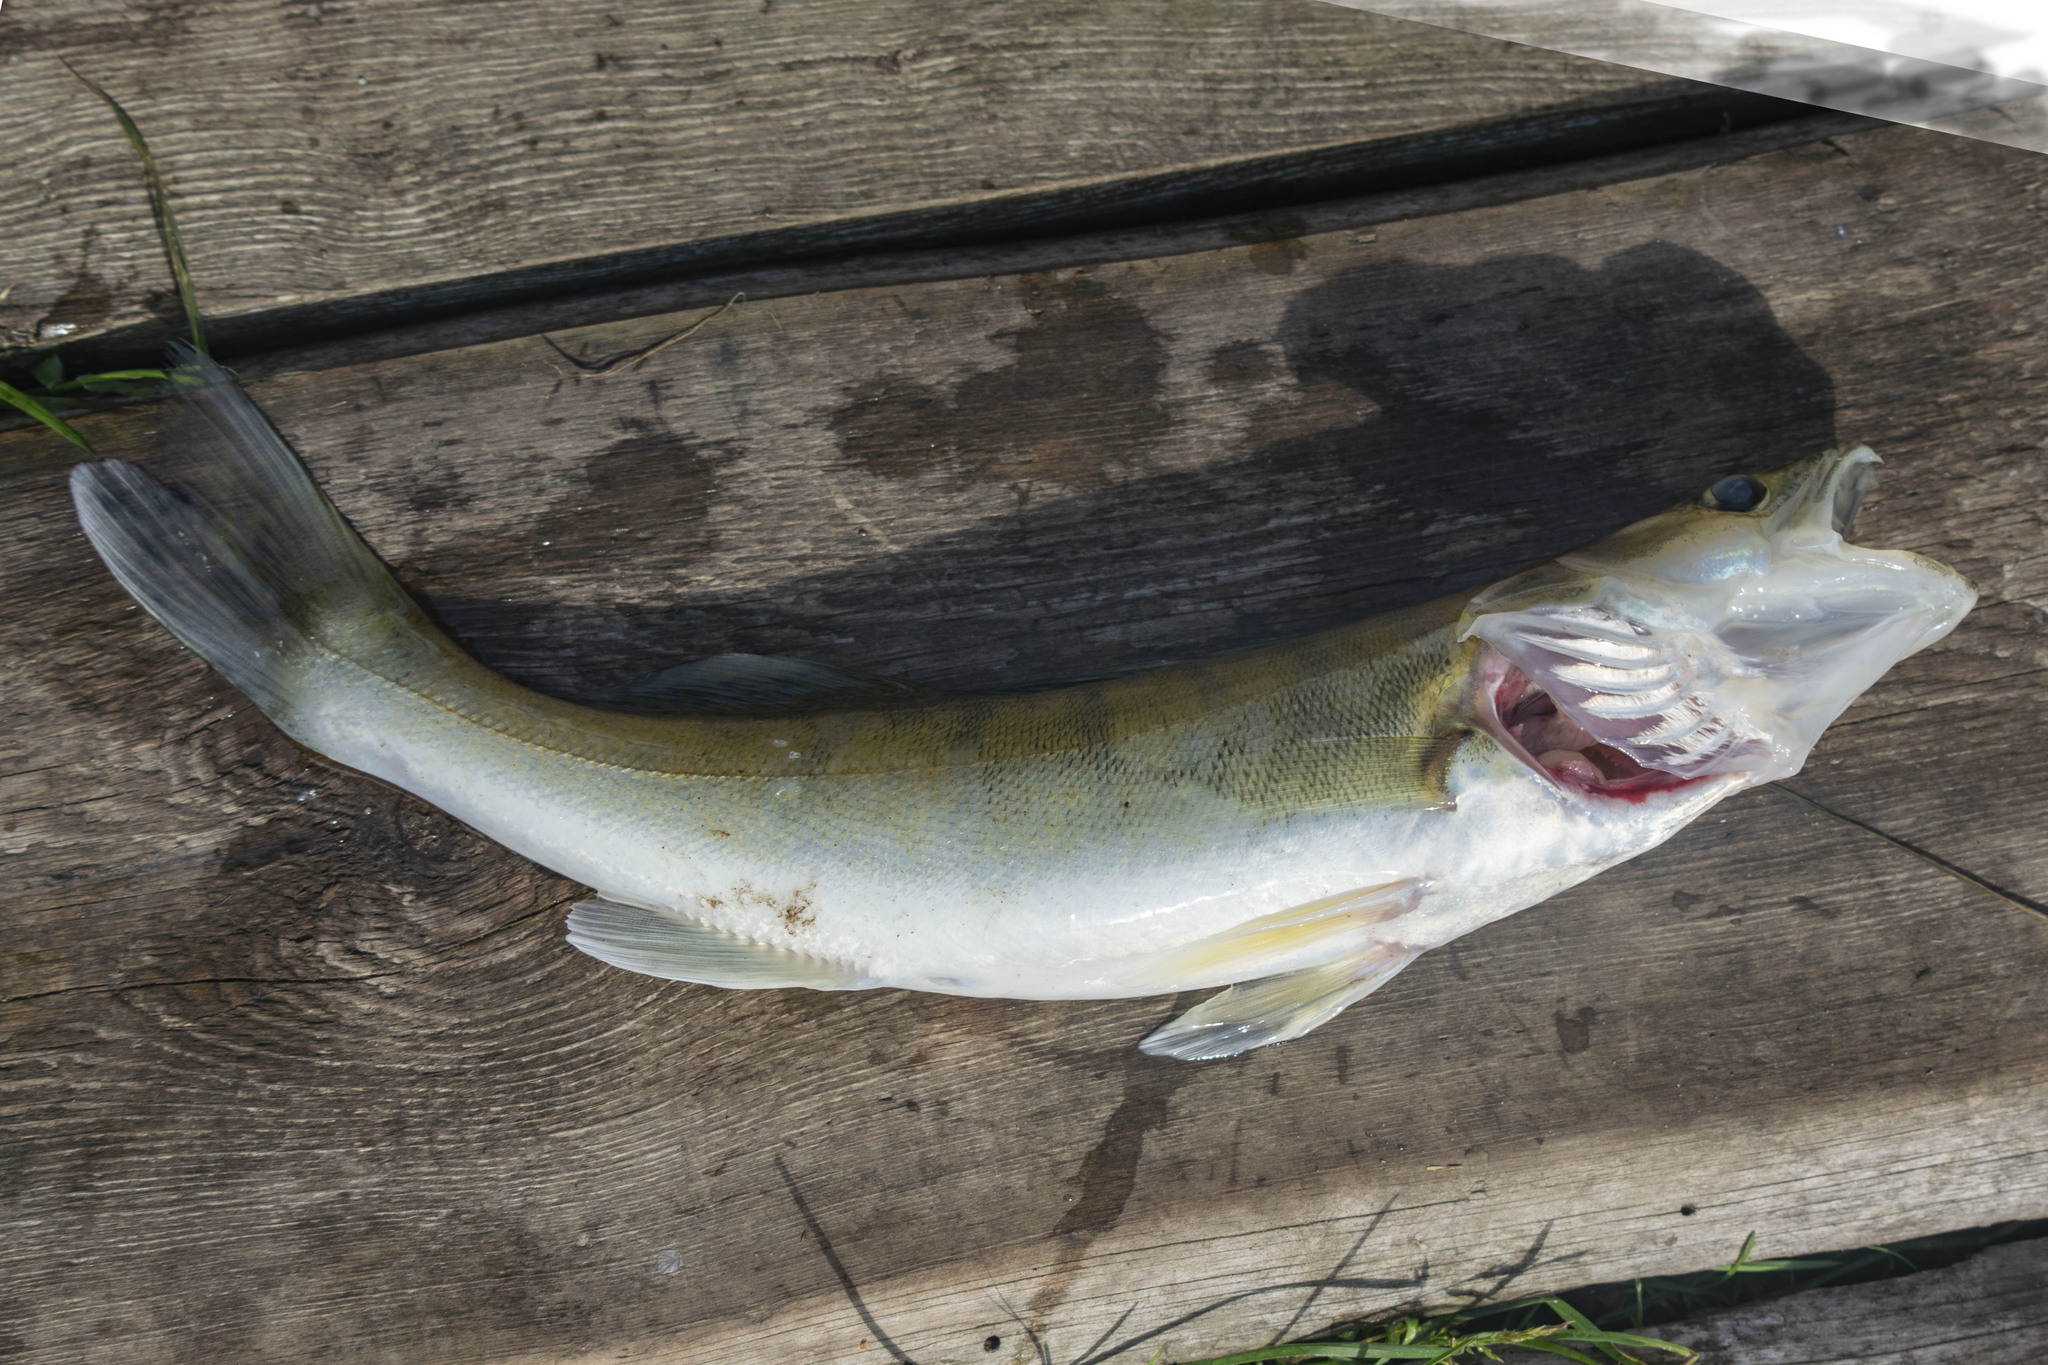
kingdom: Animalia
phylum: Chordata
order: Perciformes
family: Percidae
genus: Sander
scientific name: Sander lucioperca
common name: Pikeperch
